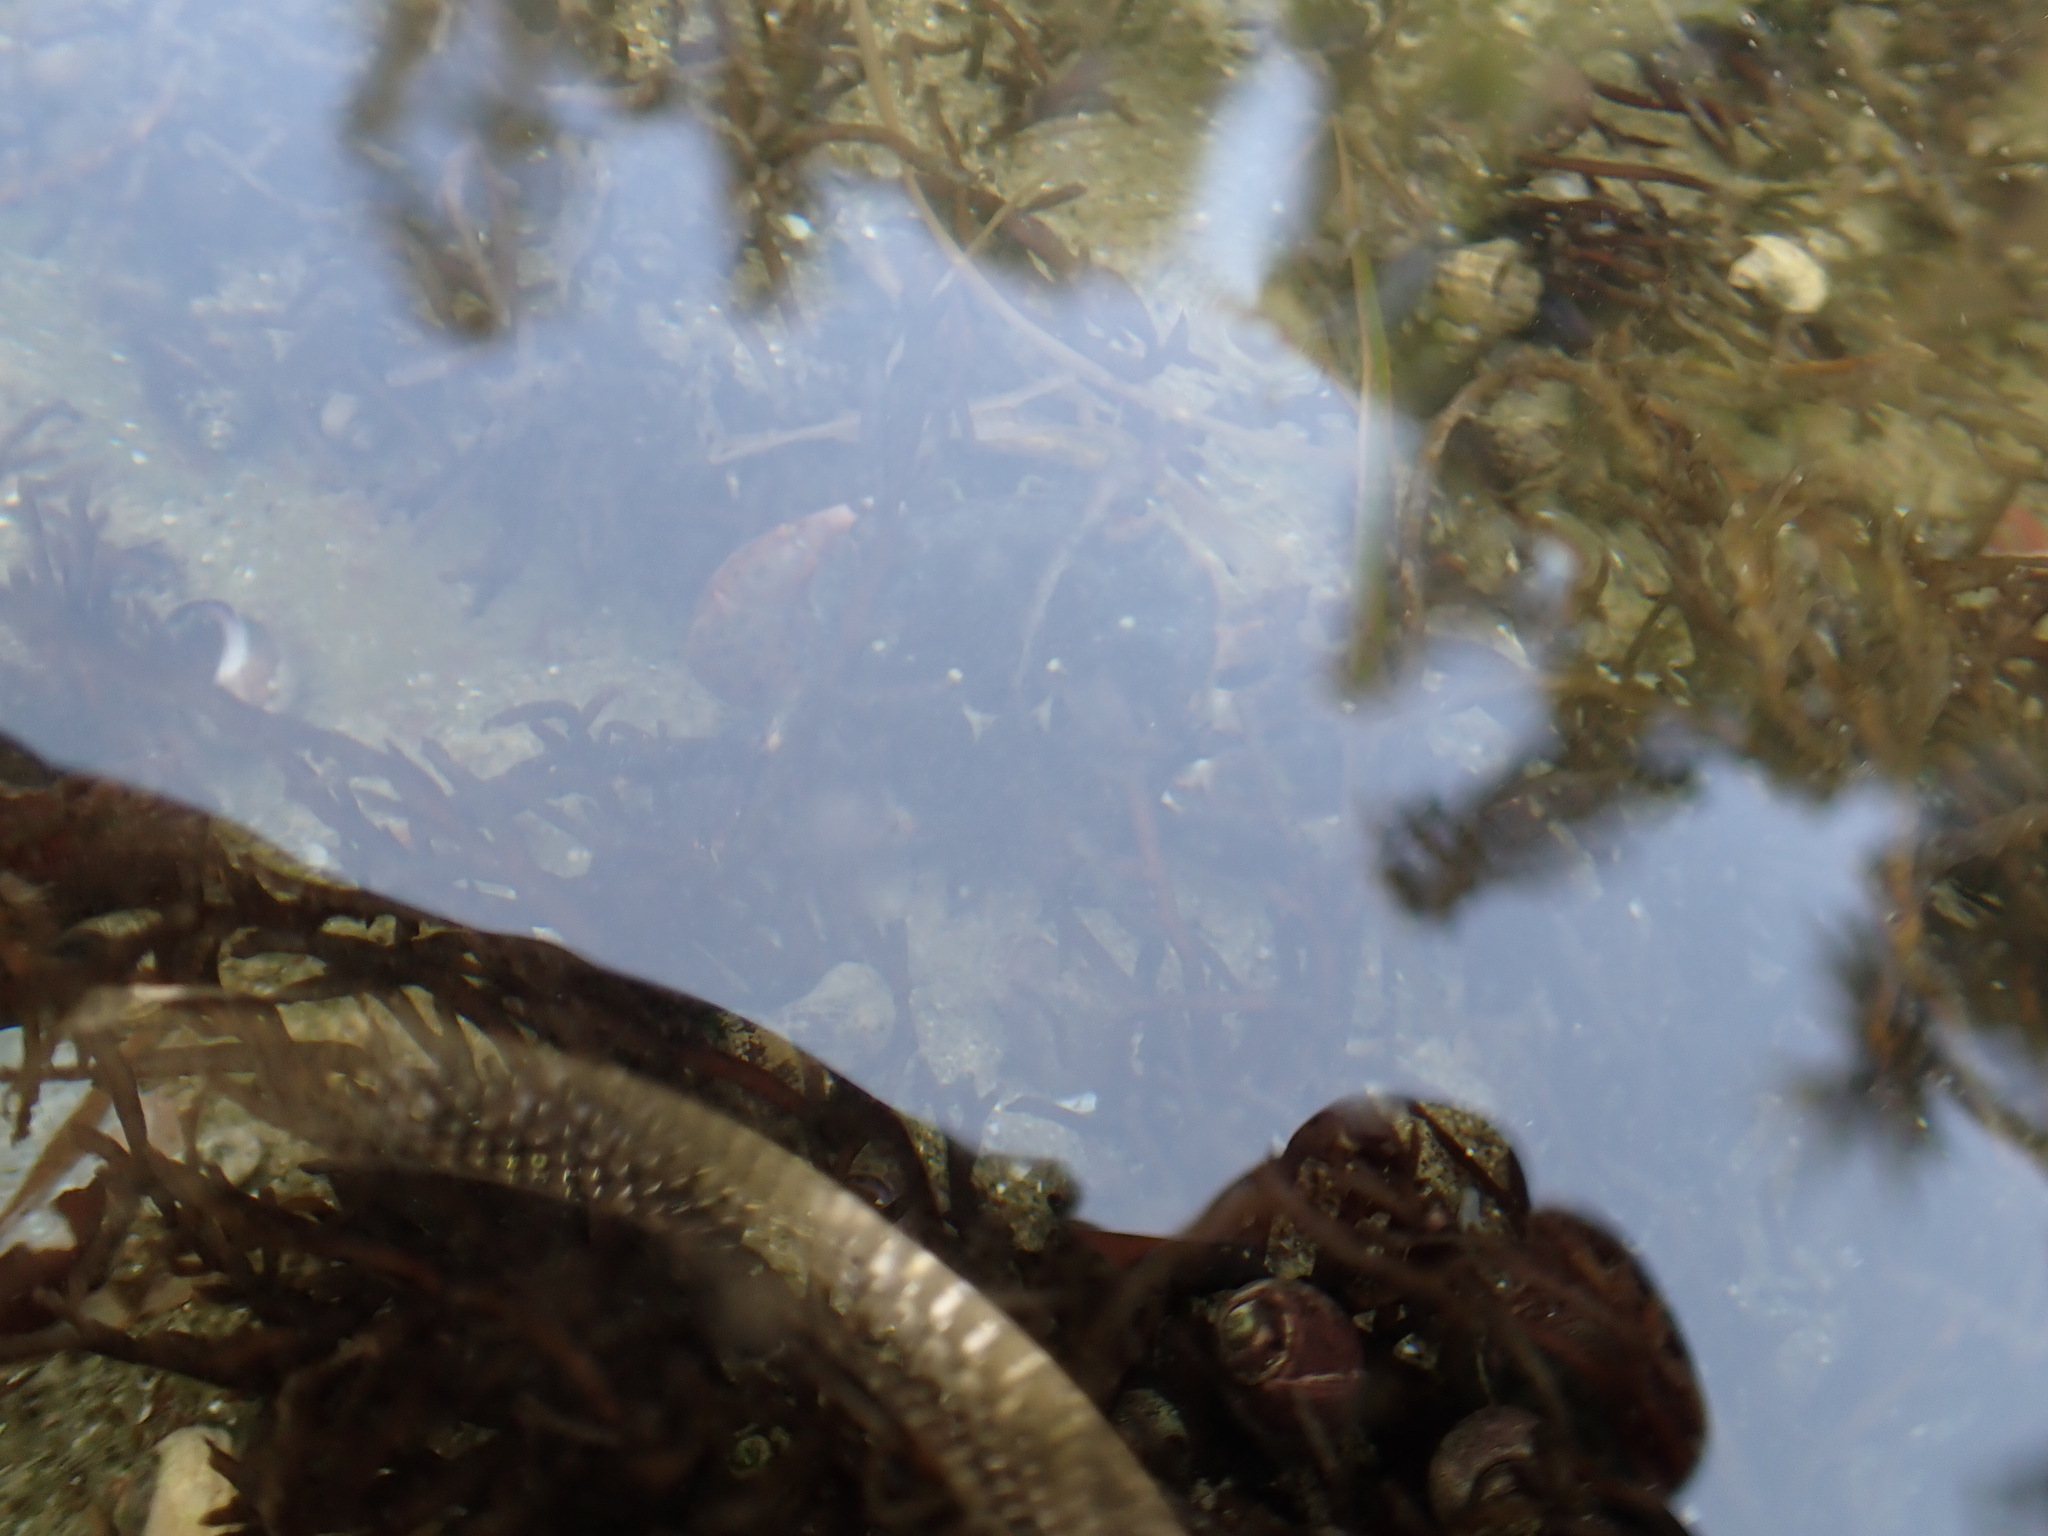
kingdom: Animalia
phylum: Arthropoda
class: Malacostraca
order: Decapoda
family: Varunidae
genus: Hemigrapsus
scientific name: Hemigrapsus nudus
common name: Purple shore crab
